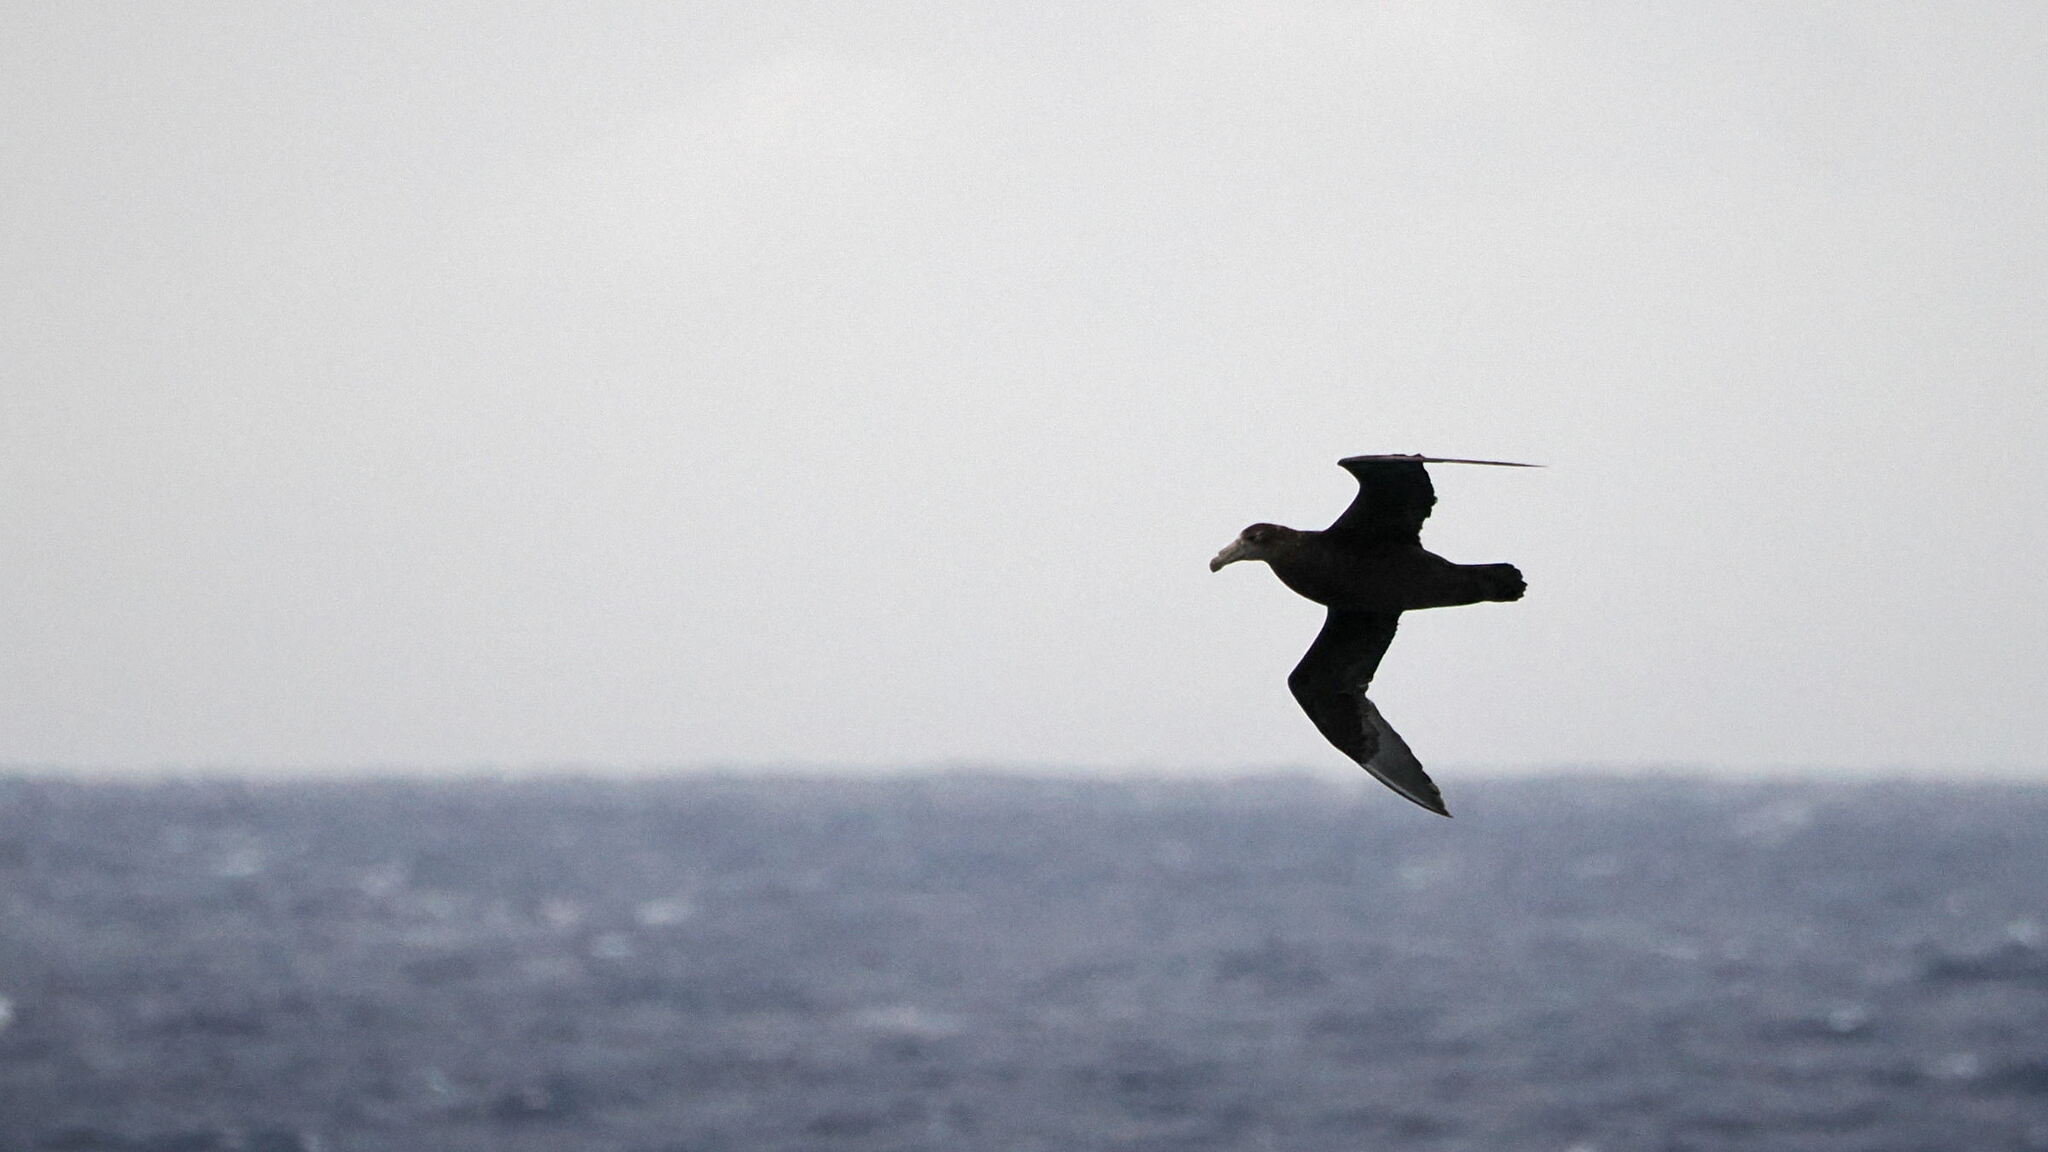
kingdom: Animalia
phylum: Chordata
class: Aves
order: Procellariiformes
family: Procellariidae
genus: Macronectes
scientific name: Macronectes giganteus
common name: Southern giant petrel
